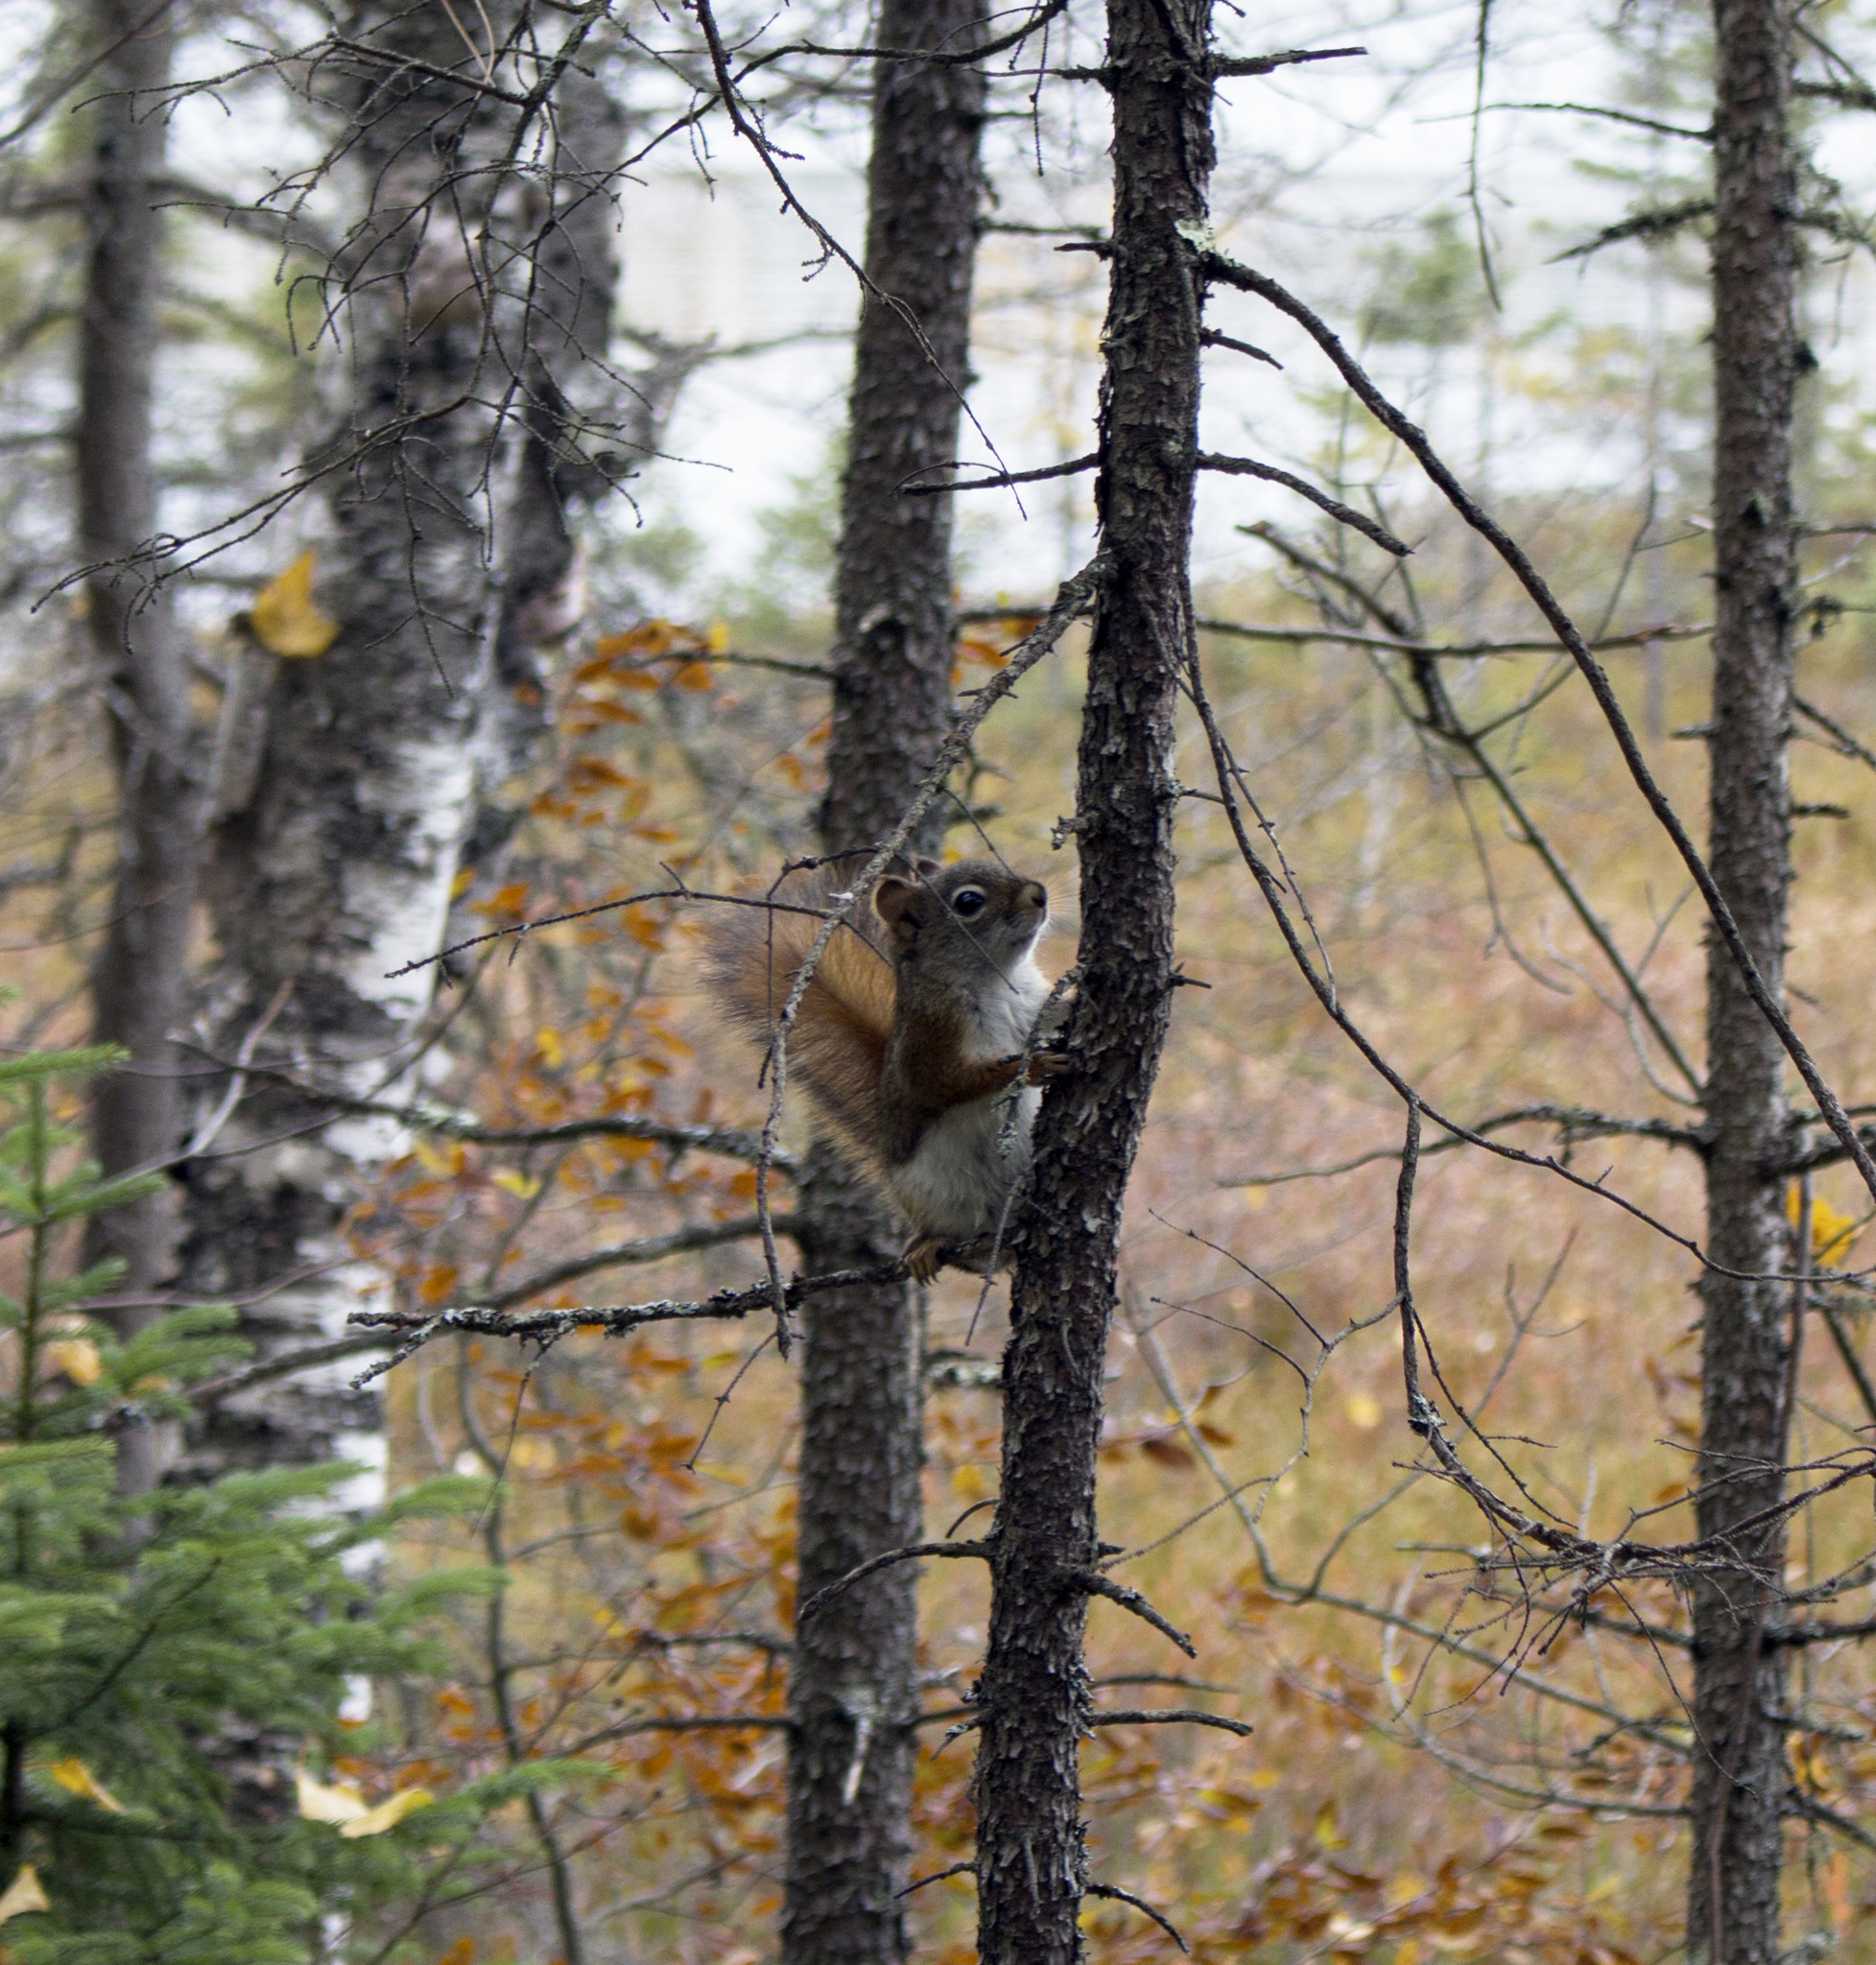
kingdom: Animalia
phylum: Chordata
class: Mammalia
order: Rodentia
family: Sciuridae
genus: Tamiasciurus
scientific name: Tamiasciurus hudsonicus
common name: Red squirrel
